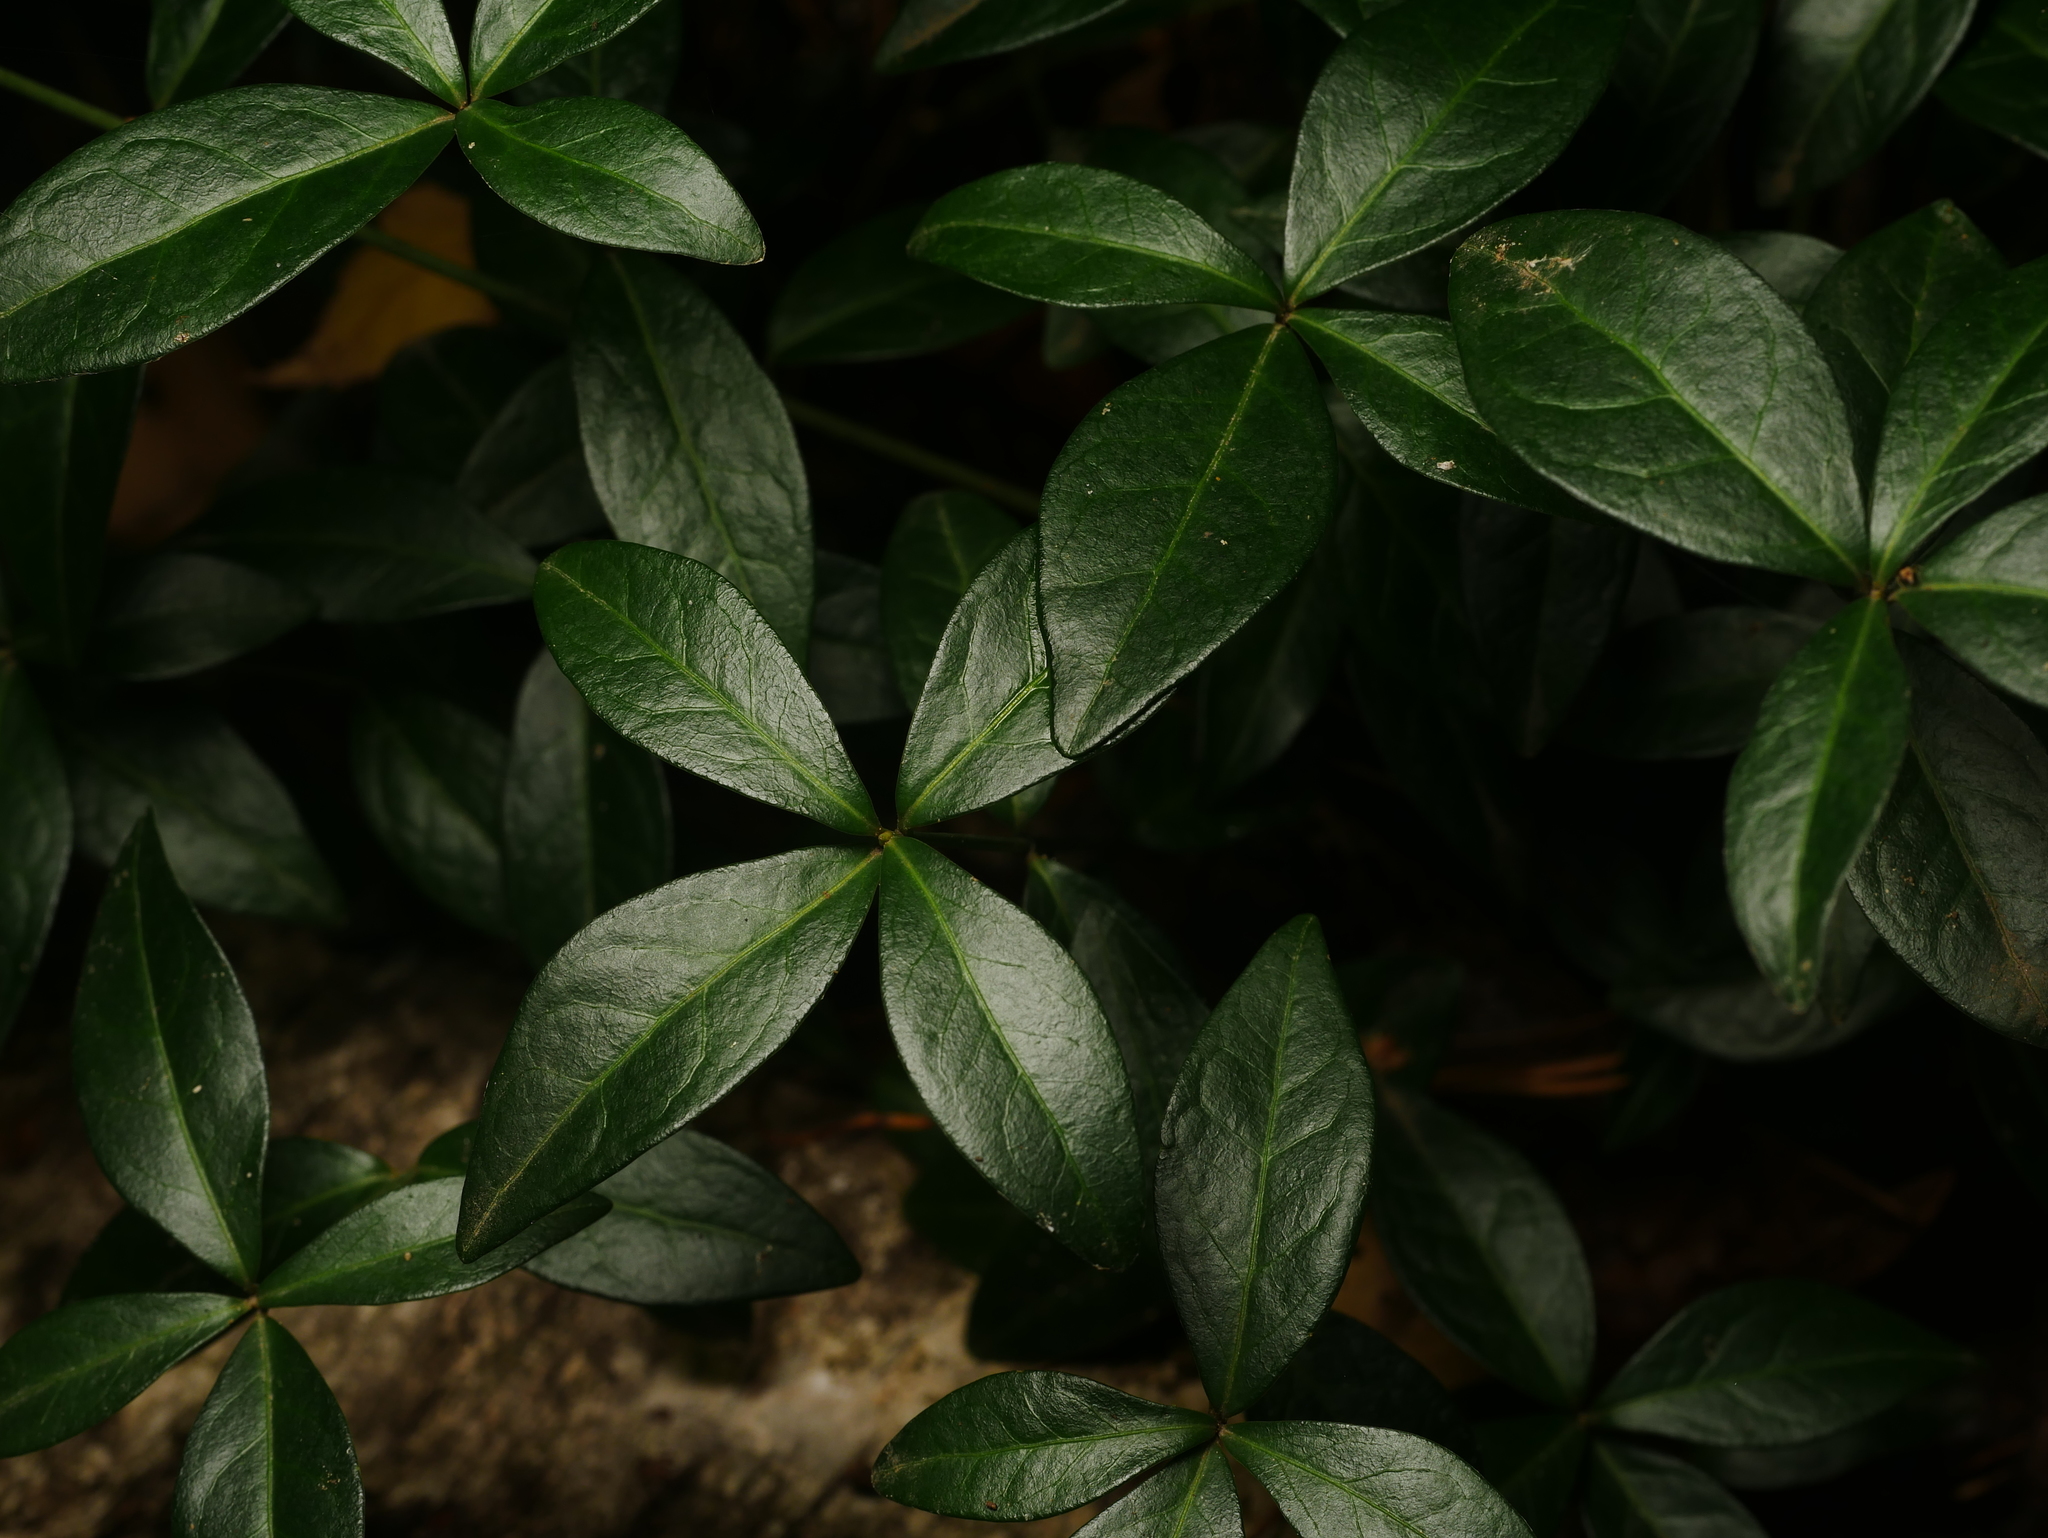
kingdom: Plantae
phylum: Tracheophyta
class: Magnoliopsida
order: Gentianales
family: Apocynaceae
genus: Vinca
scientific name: Vinca minor
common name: Lesser periwinkle
